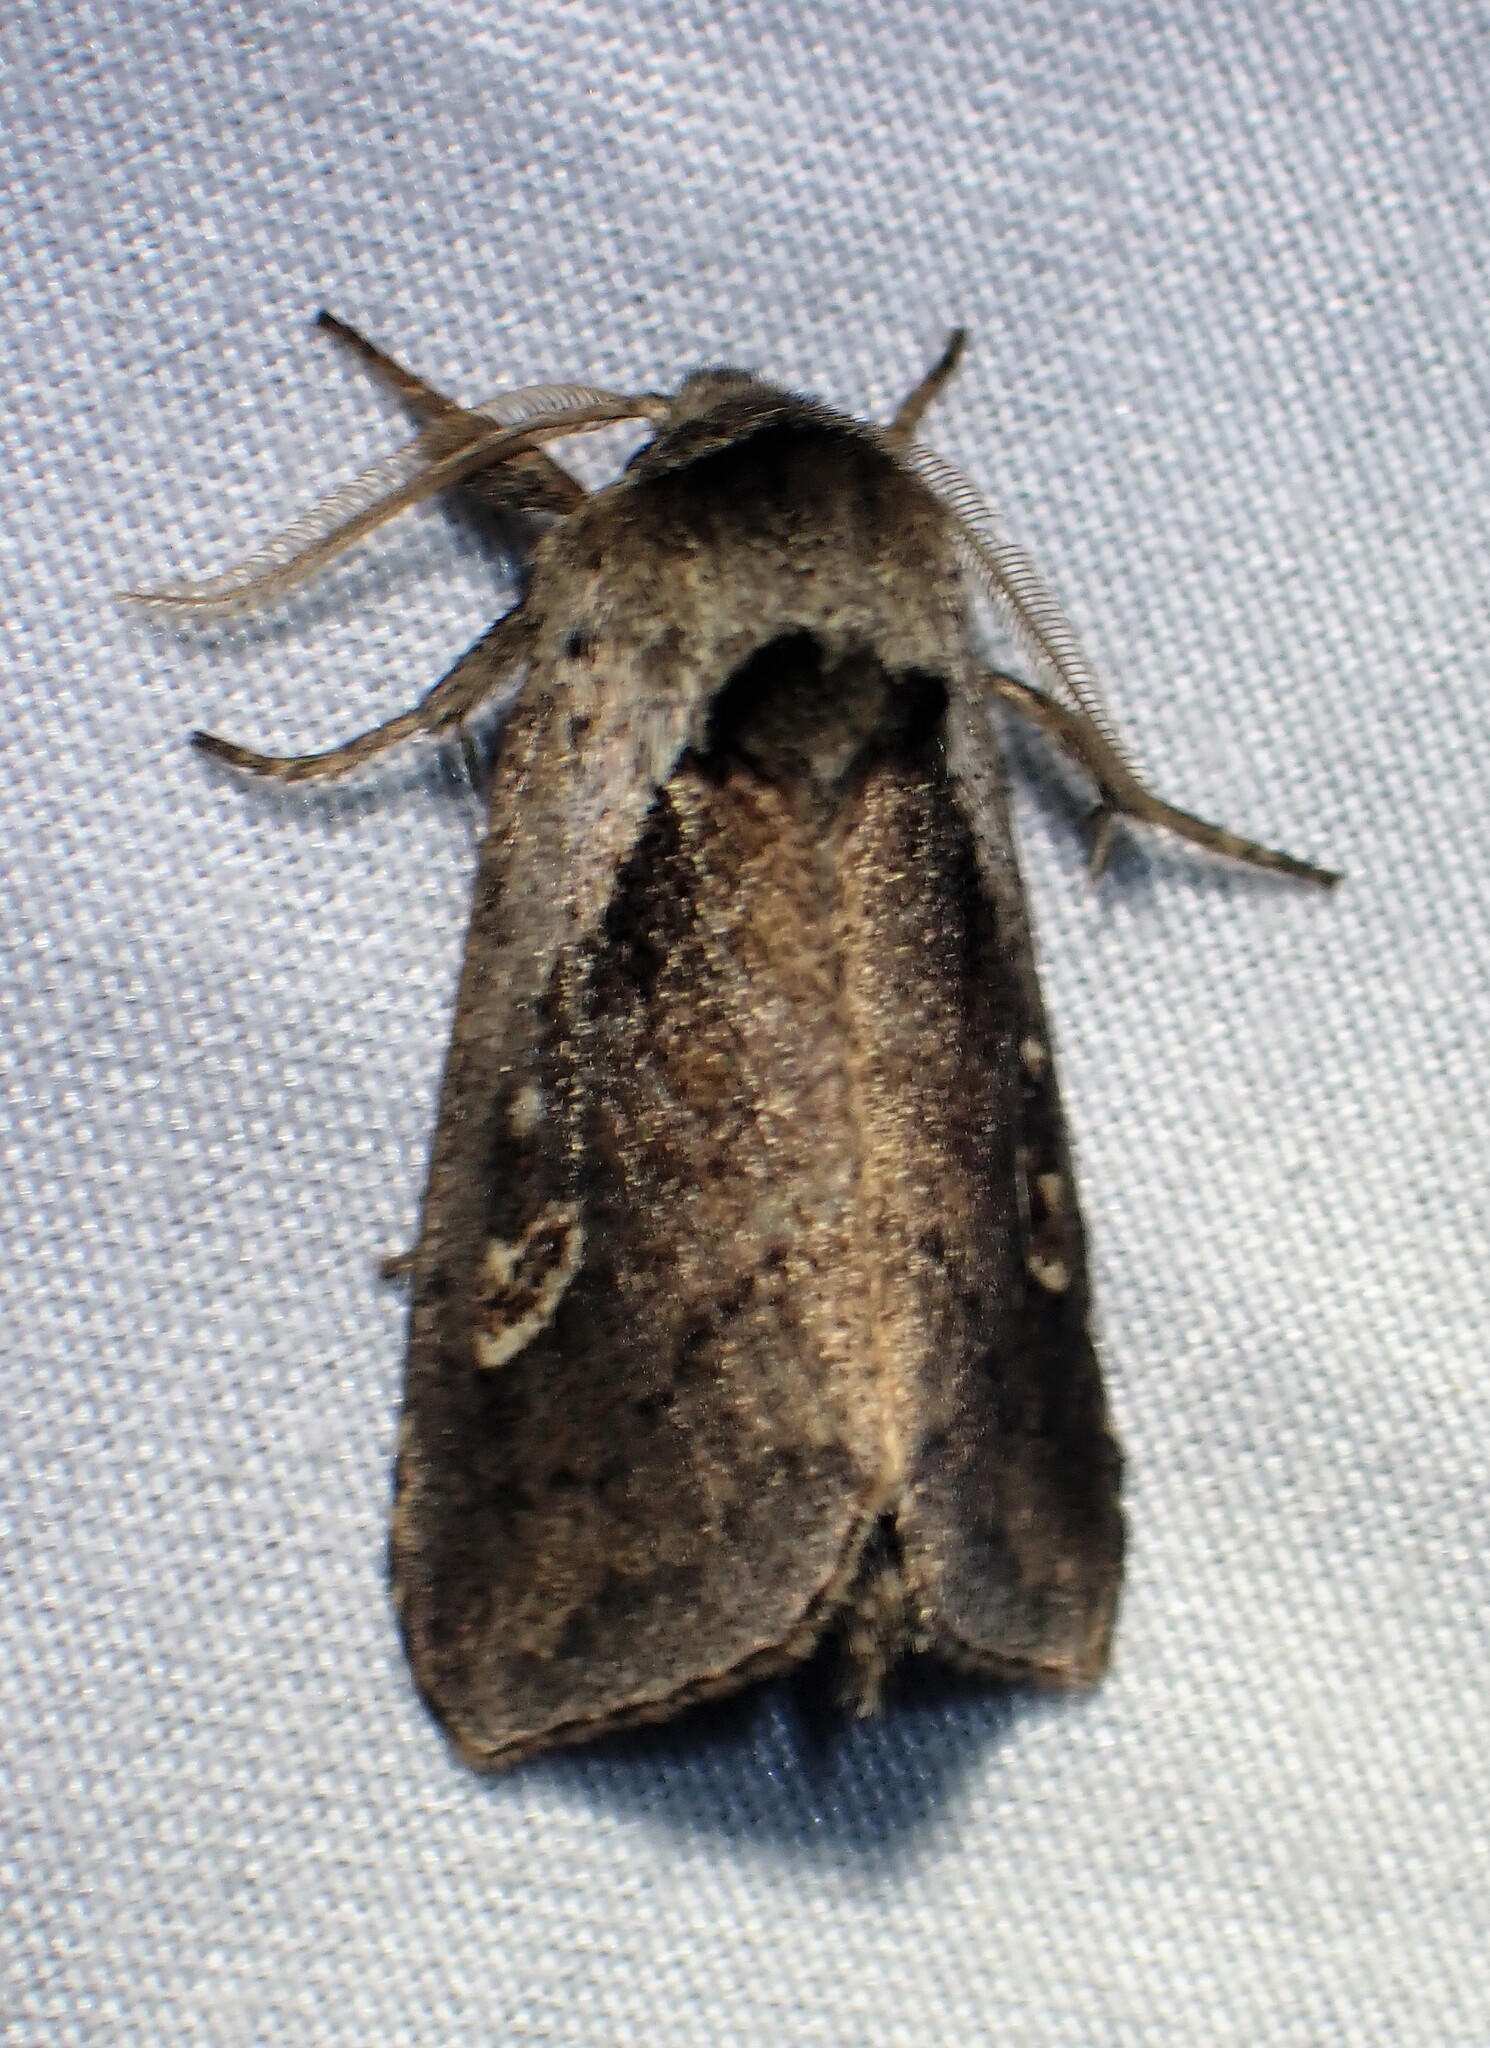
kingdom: Animalia
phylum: Arthropoda
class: Insecta
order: Lepidoptera
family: Noctuidae
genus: Bellura
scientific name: Bellura obliqua
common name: Cattail borer moth
